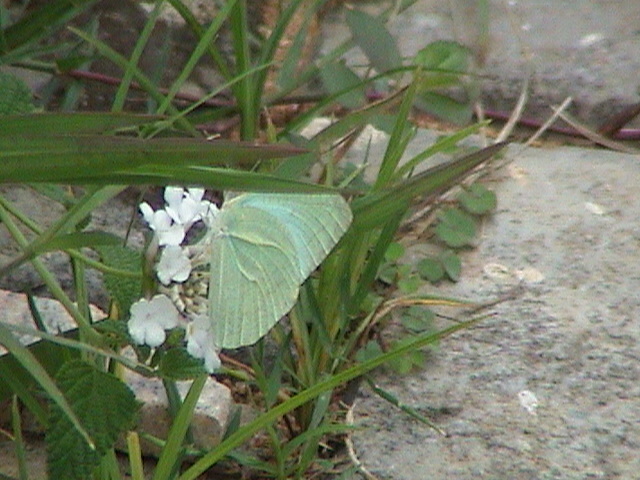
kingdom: Animalia
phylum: Arthropoda
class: Insecta
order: Lepidoptera
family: Pieridae
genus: Catopsilia
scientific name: Catopsilia pyranthe
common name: Mottled emigrant
